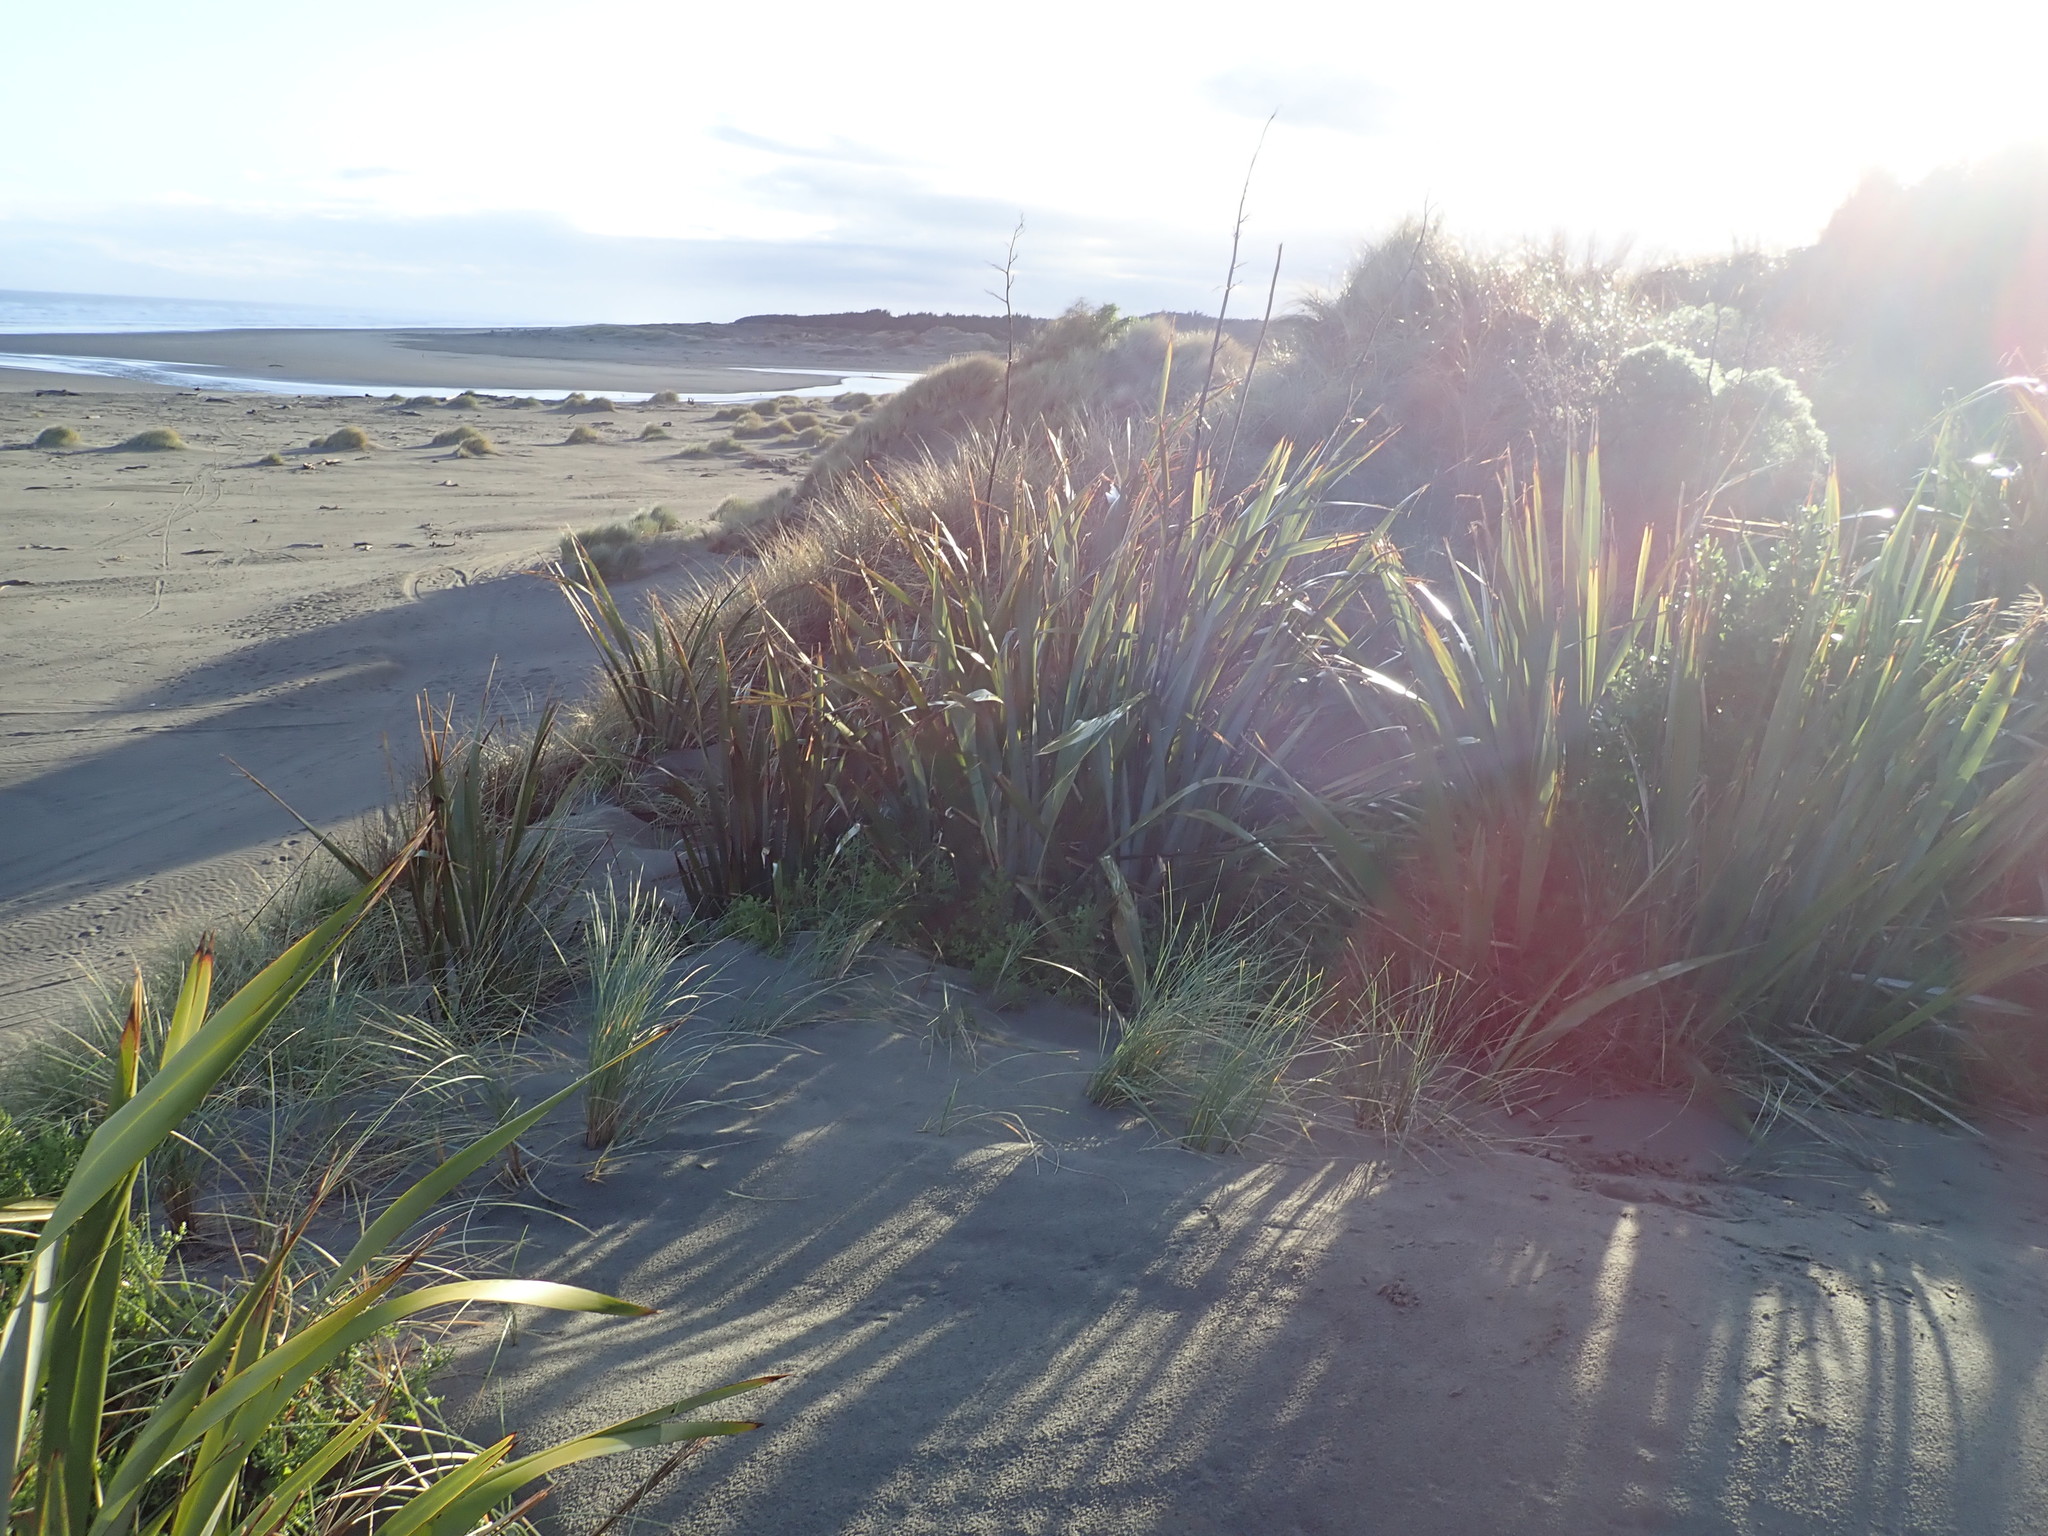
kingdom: Plantae
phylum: Tracheophyta
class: Liliopsida
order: Asparagales
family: Asphodelaceae
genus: Phormium
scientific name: Phormium tenax
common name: New zealand flax
